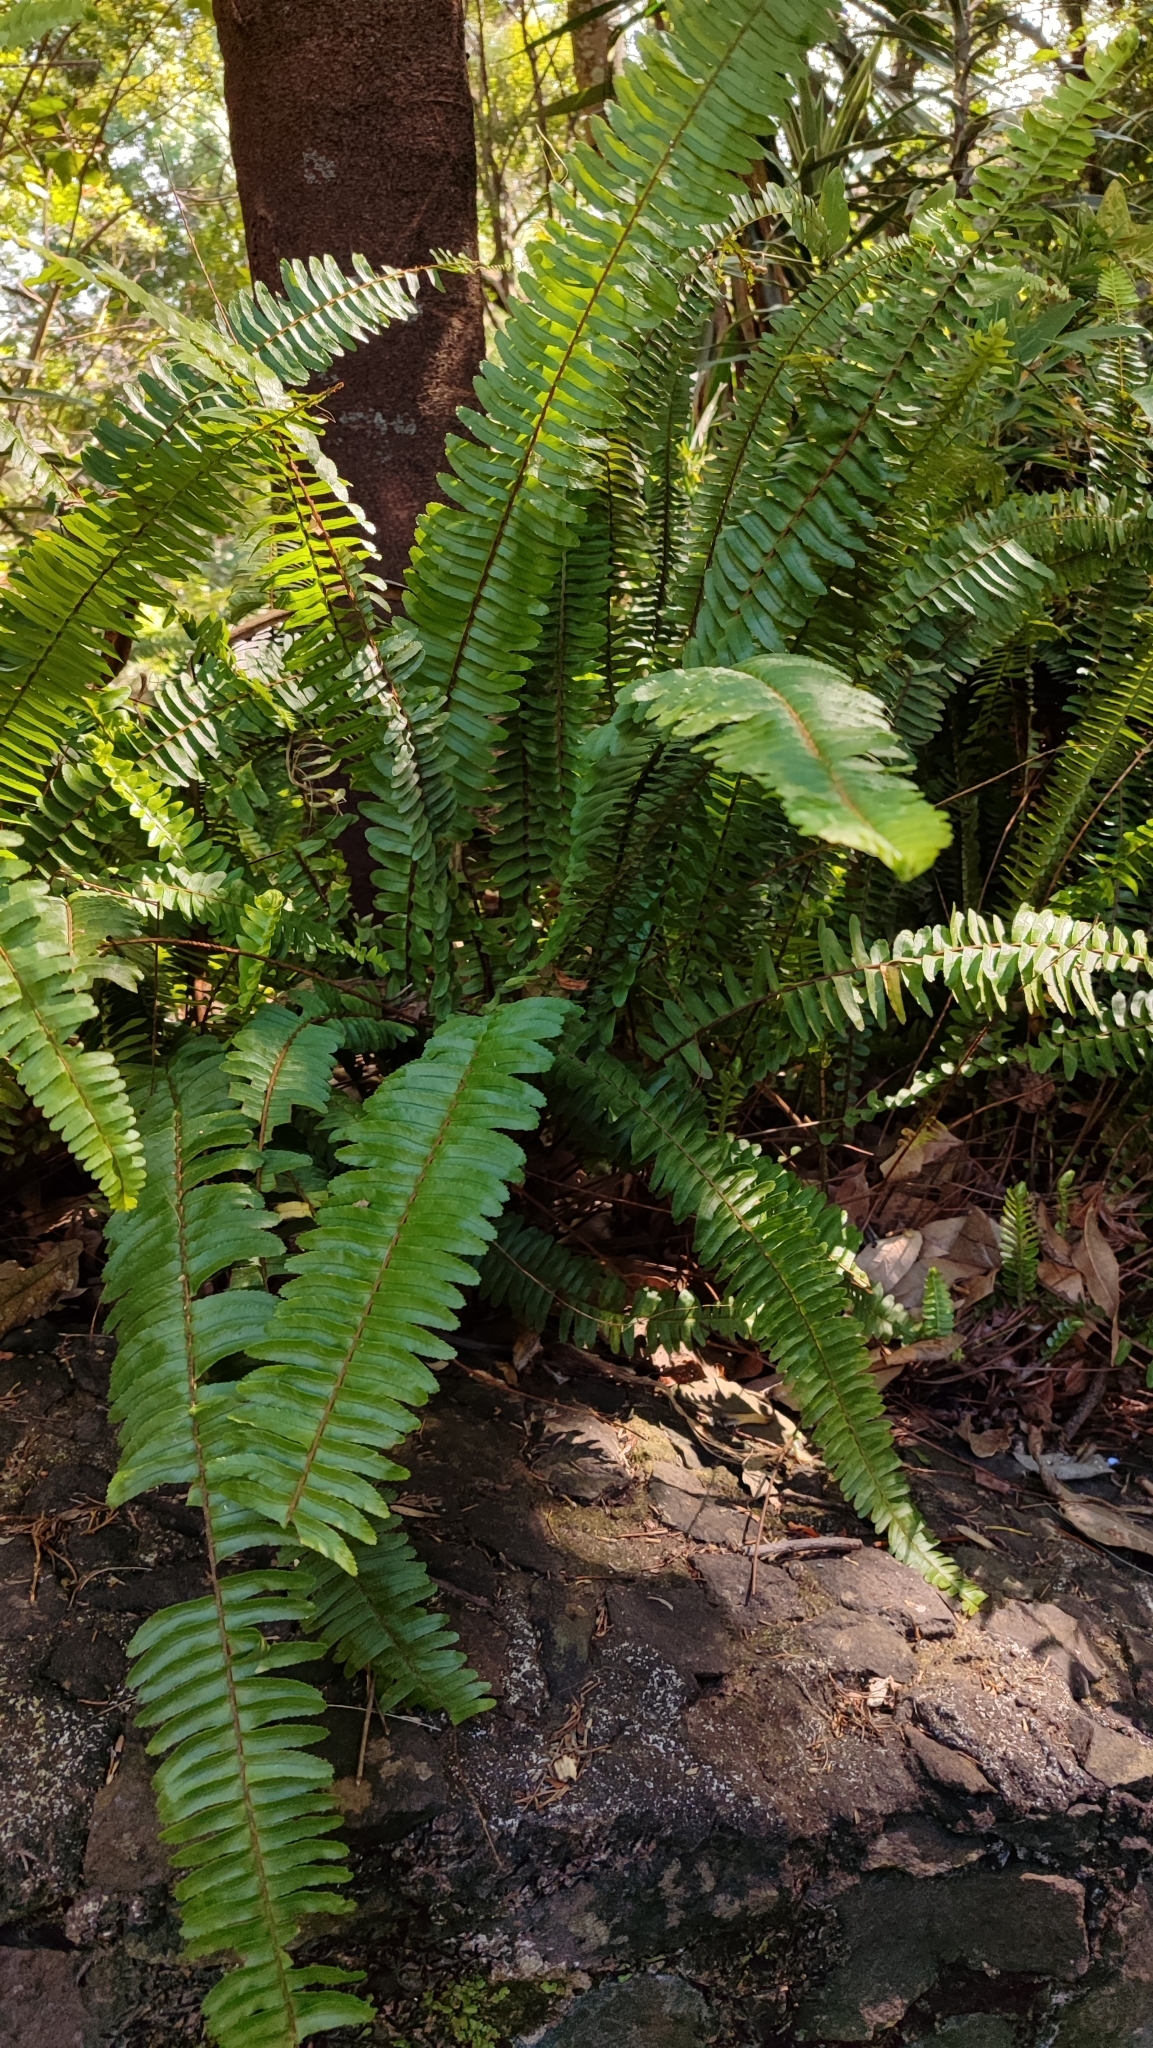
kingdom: Plantae
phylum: Tracheophyta
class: Polypodiopsida
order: Polypodiales
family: Nephrolepidaceae
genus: Nephrolepis
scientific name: Nephrolepis cordifolia
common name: Narrow swordfern
